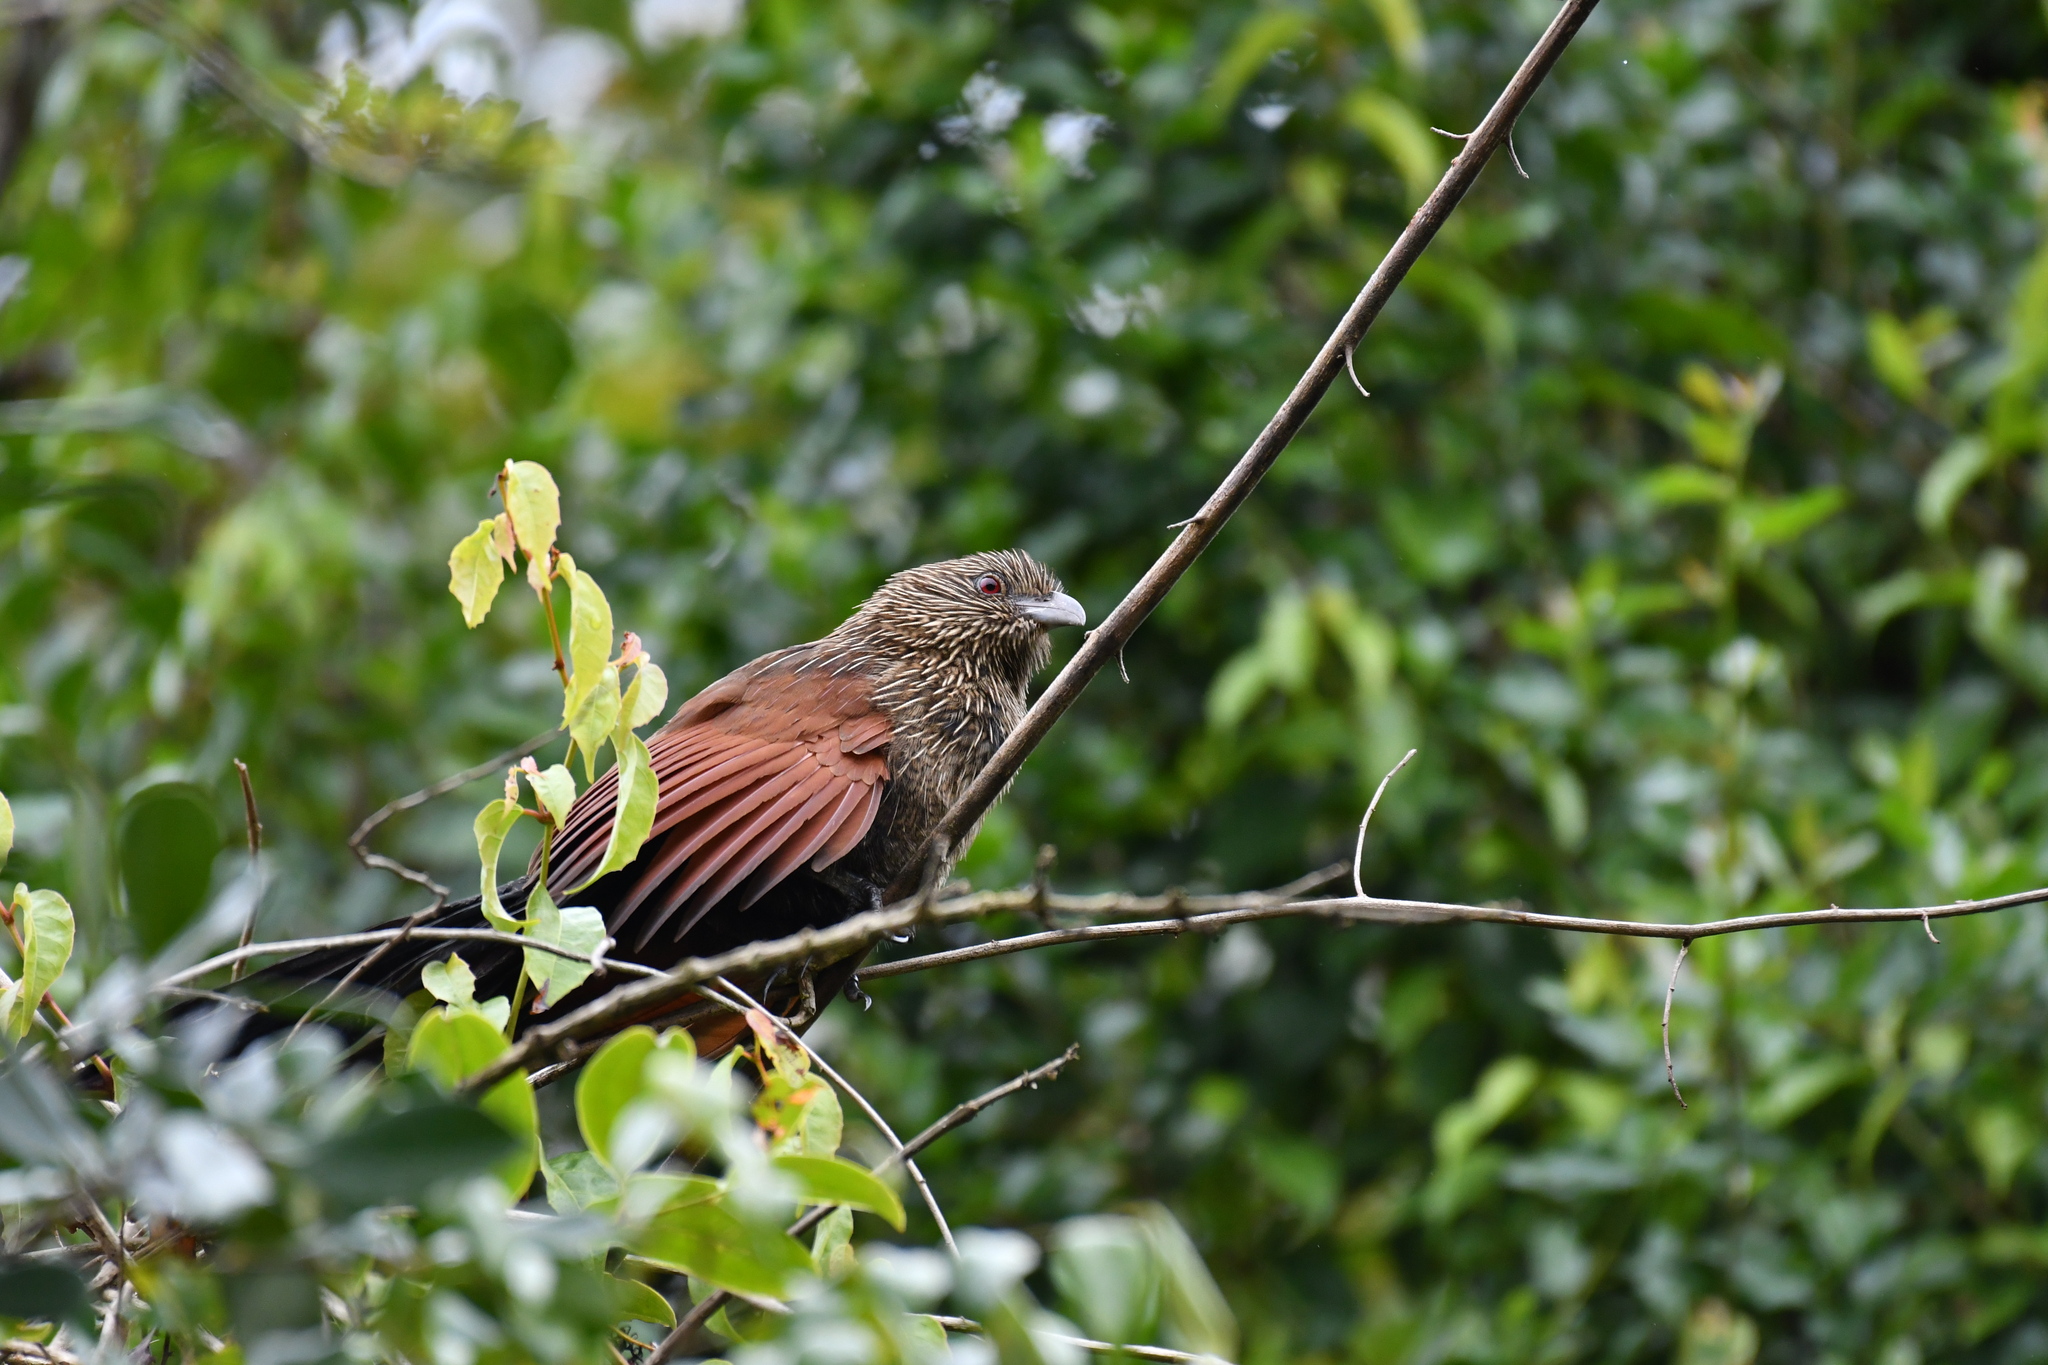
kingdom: Animalia
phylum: Chordata
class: Aves
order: Cuculiformes
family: Cuculidae
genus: Centropus
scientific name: Centropus toulou
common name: Malagasy coucal
